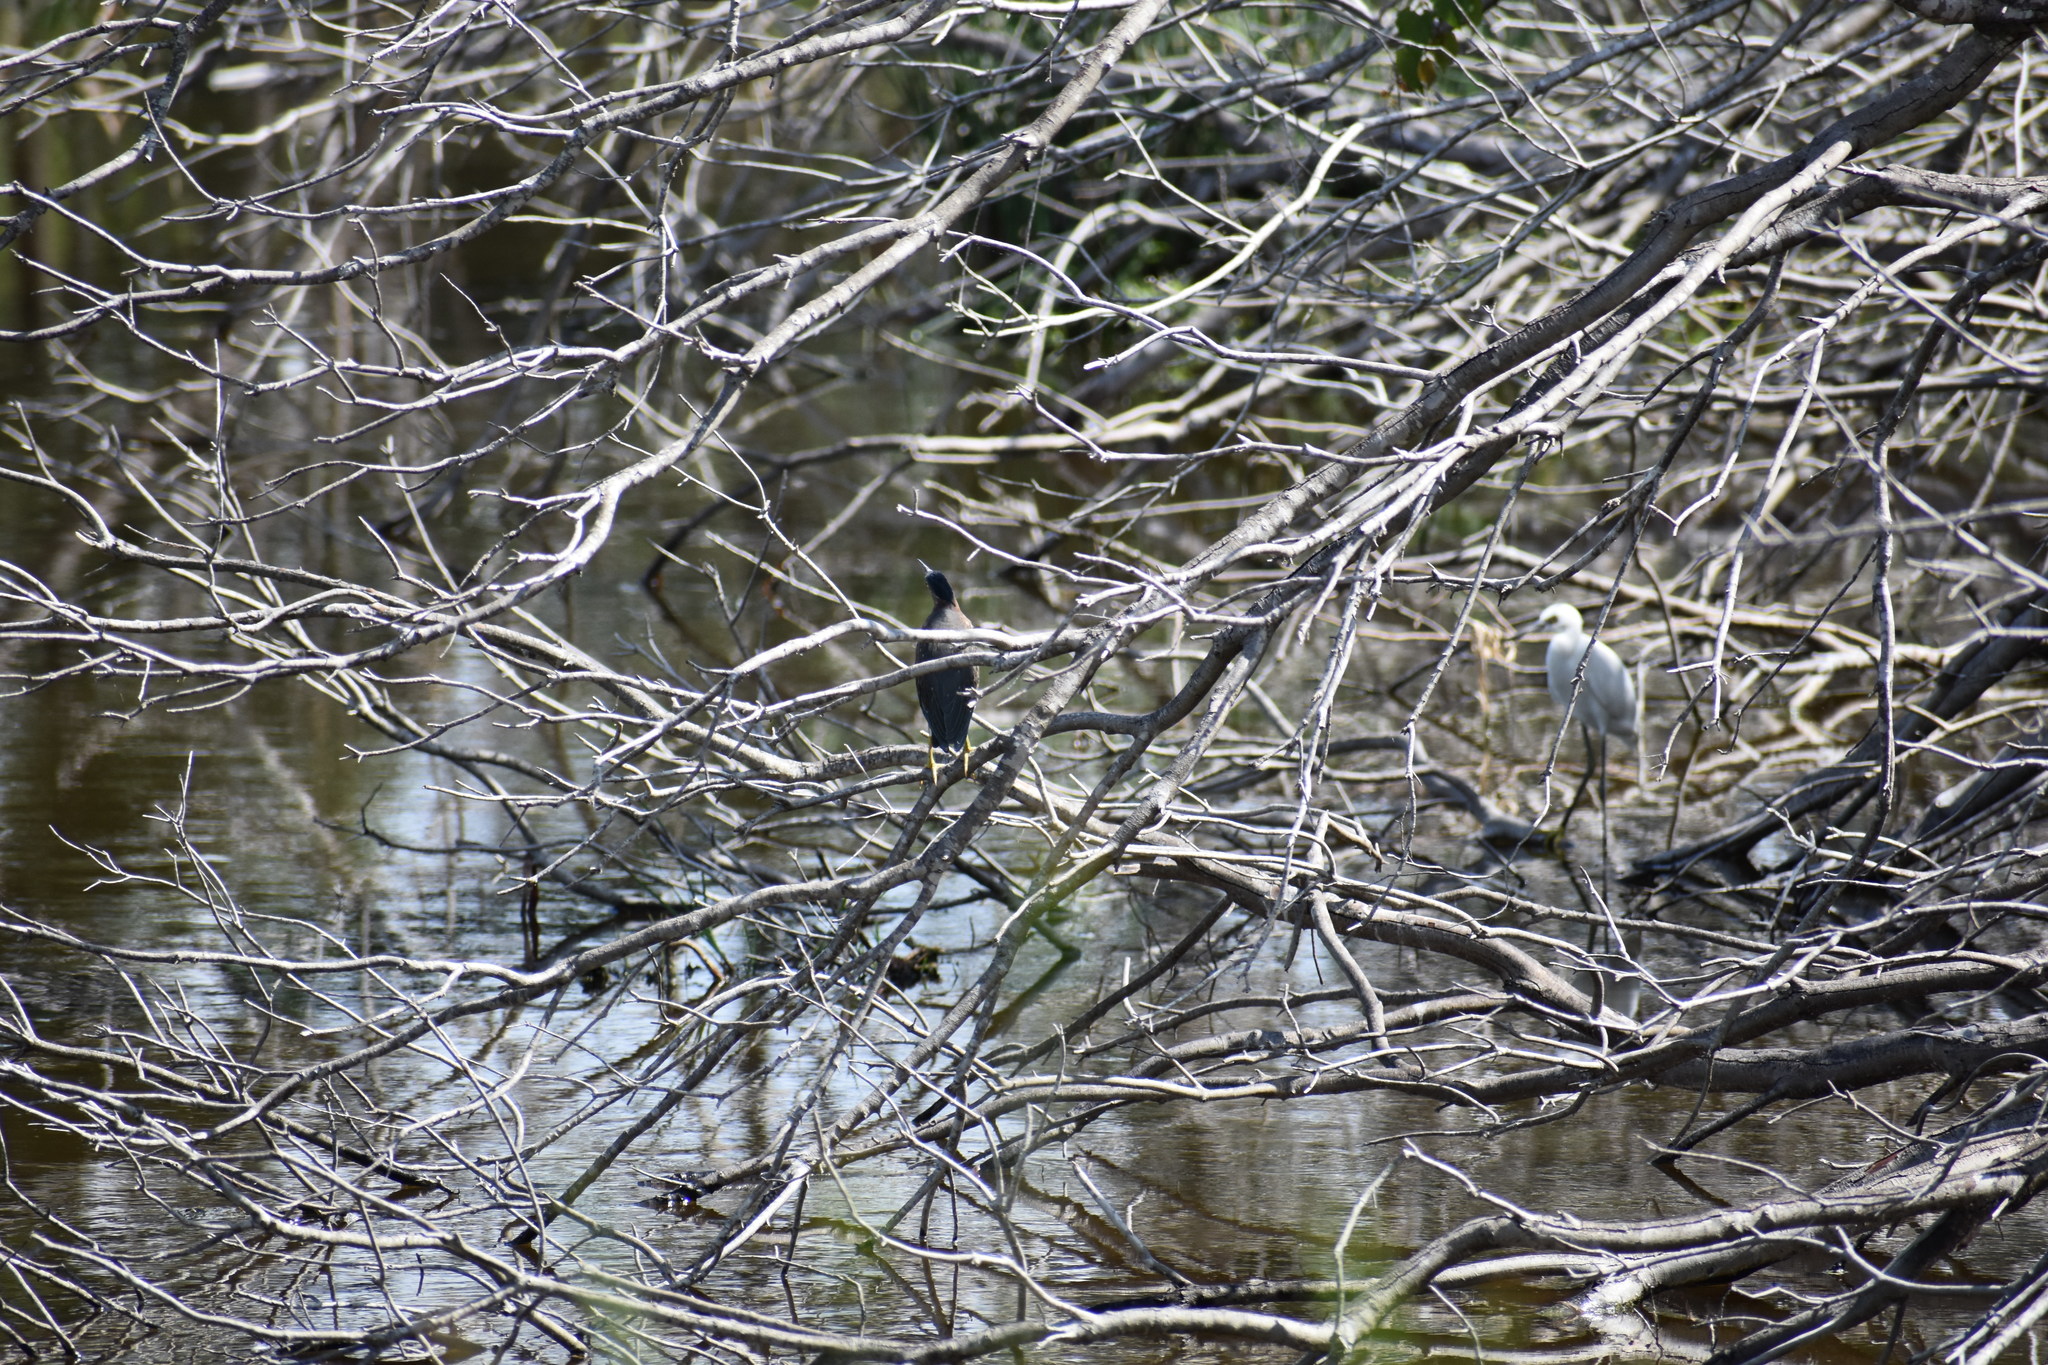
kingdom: Animalia
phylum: Chordata
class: Aves
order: Pelecaniformes
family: Ardeidae
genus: Butorides
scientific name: Butorides virescens
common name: Green heron
